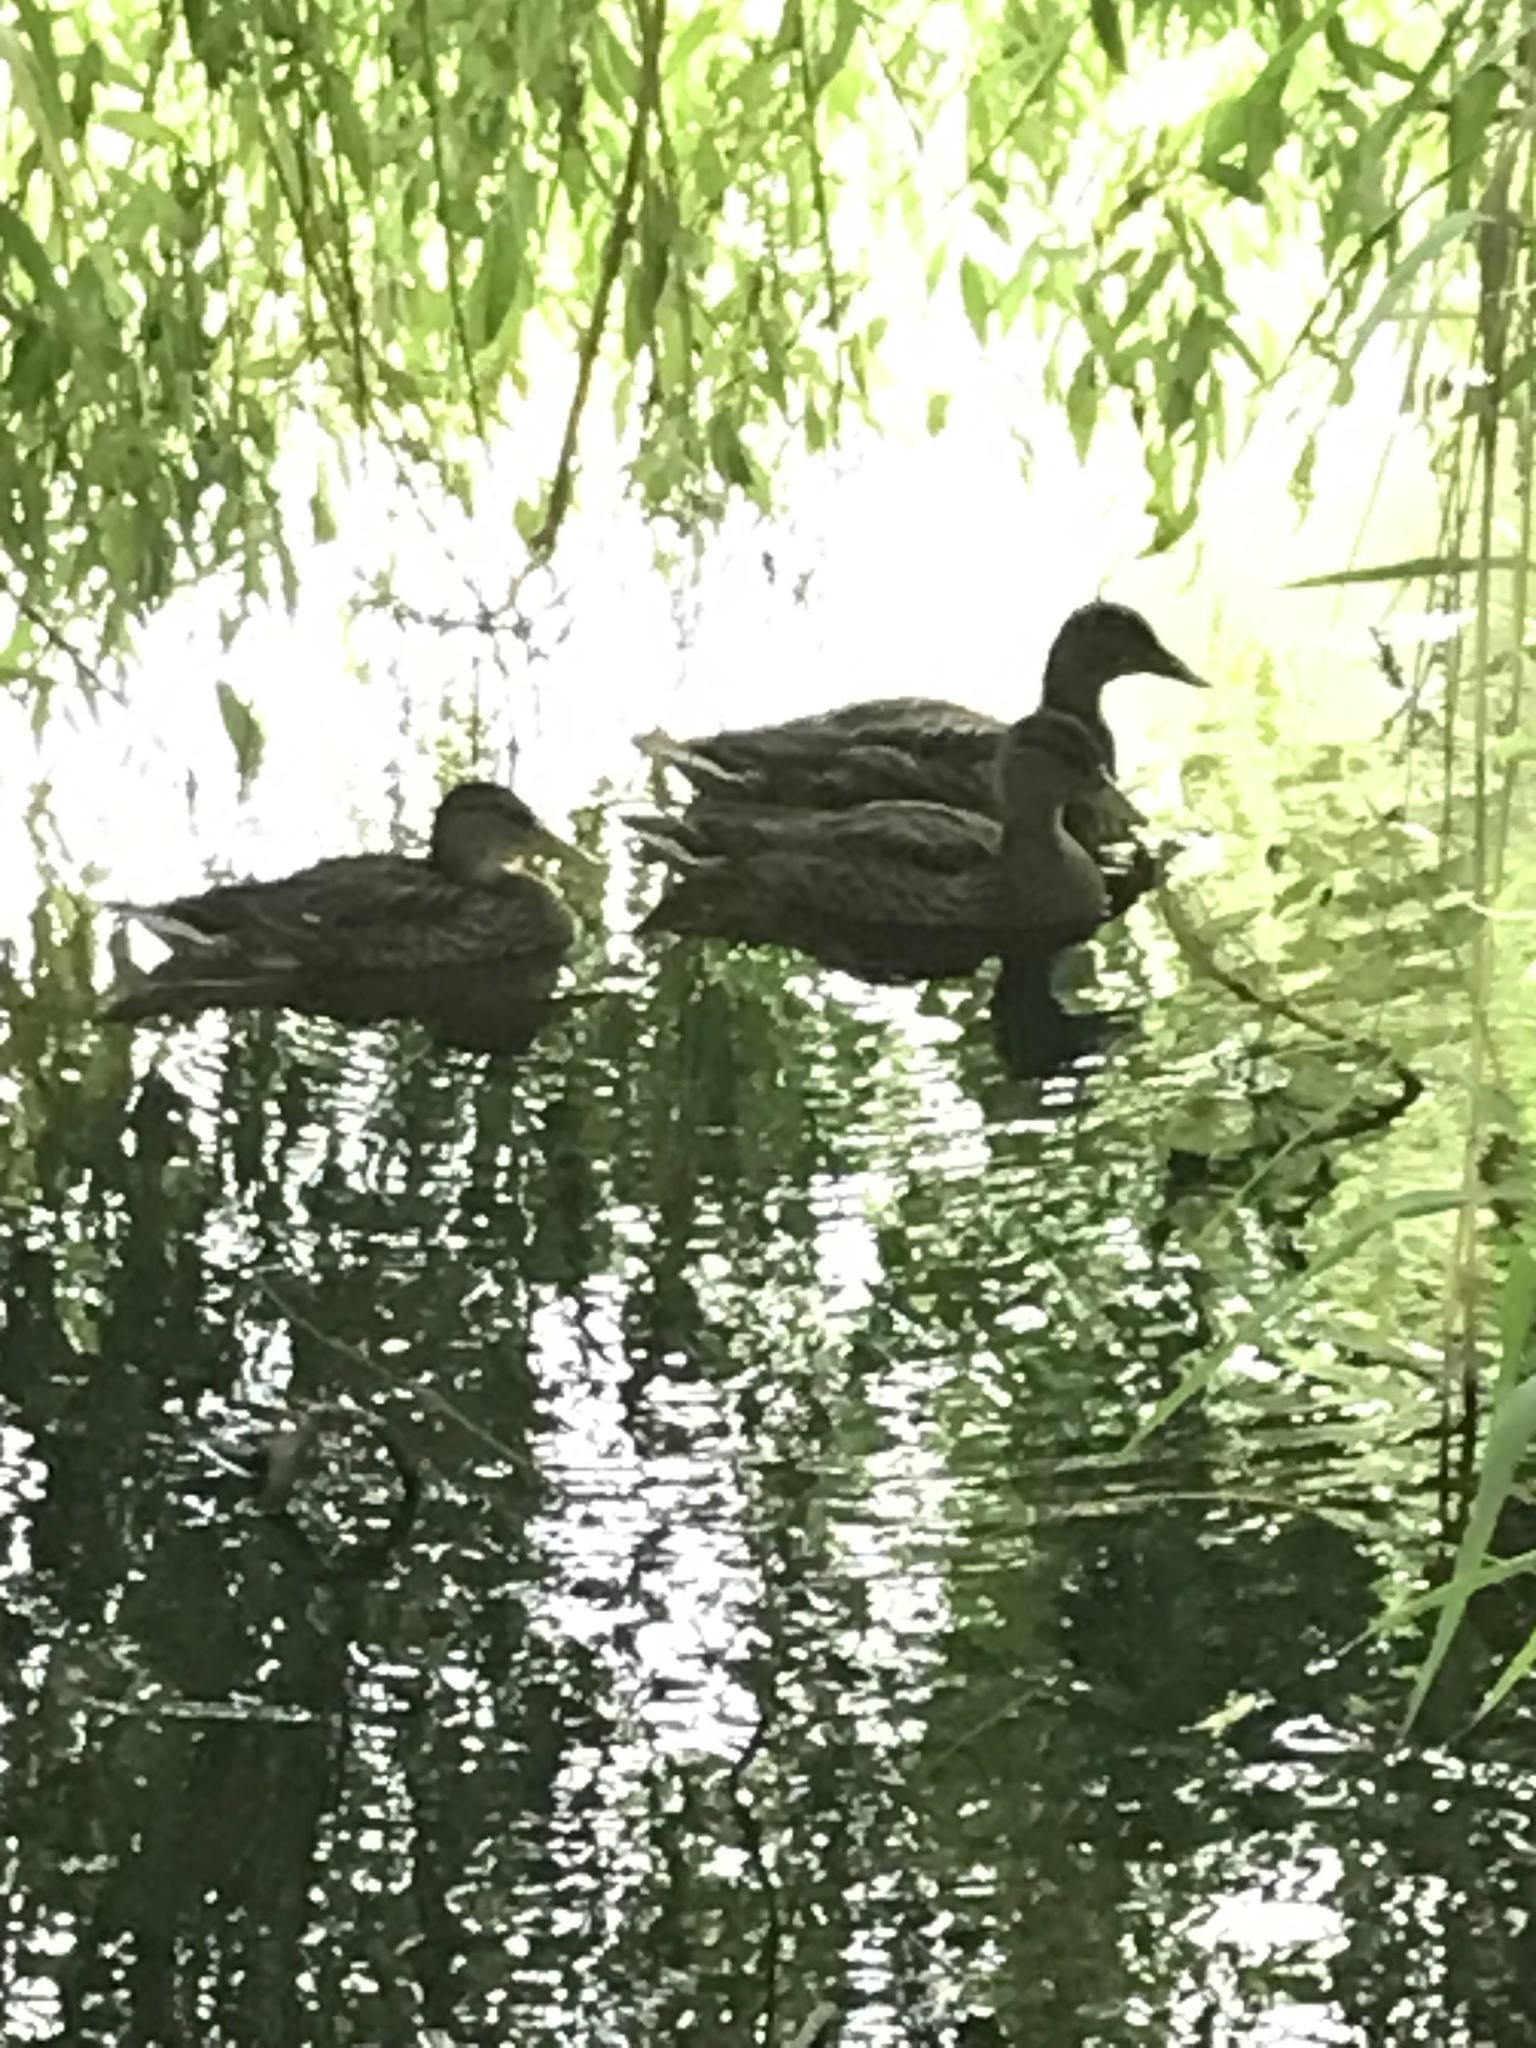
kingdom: Animalia
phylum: Chordata
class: Aves
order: Anseriformes
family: Anatidae
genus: Anas
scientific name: Anas platyrhynchos
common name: Mallard
